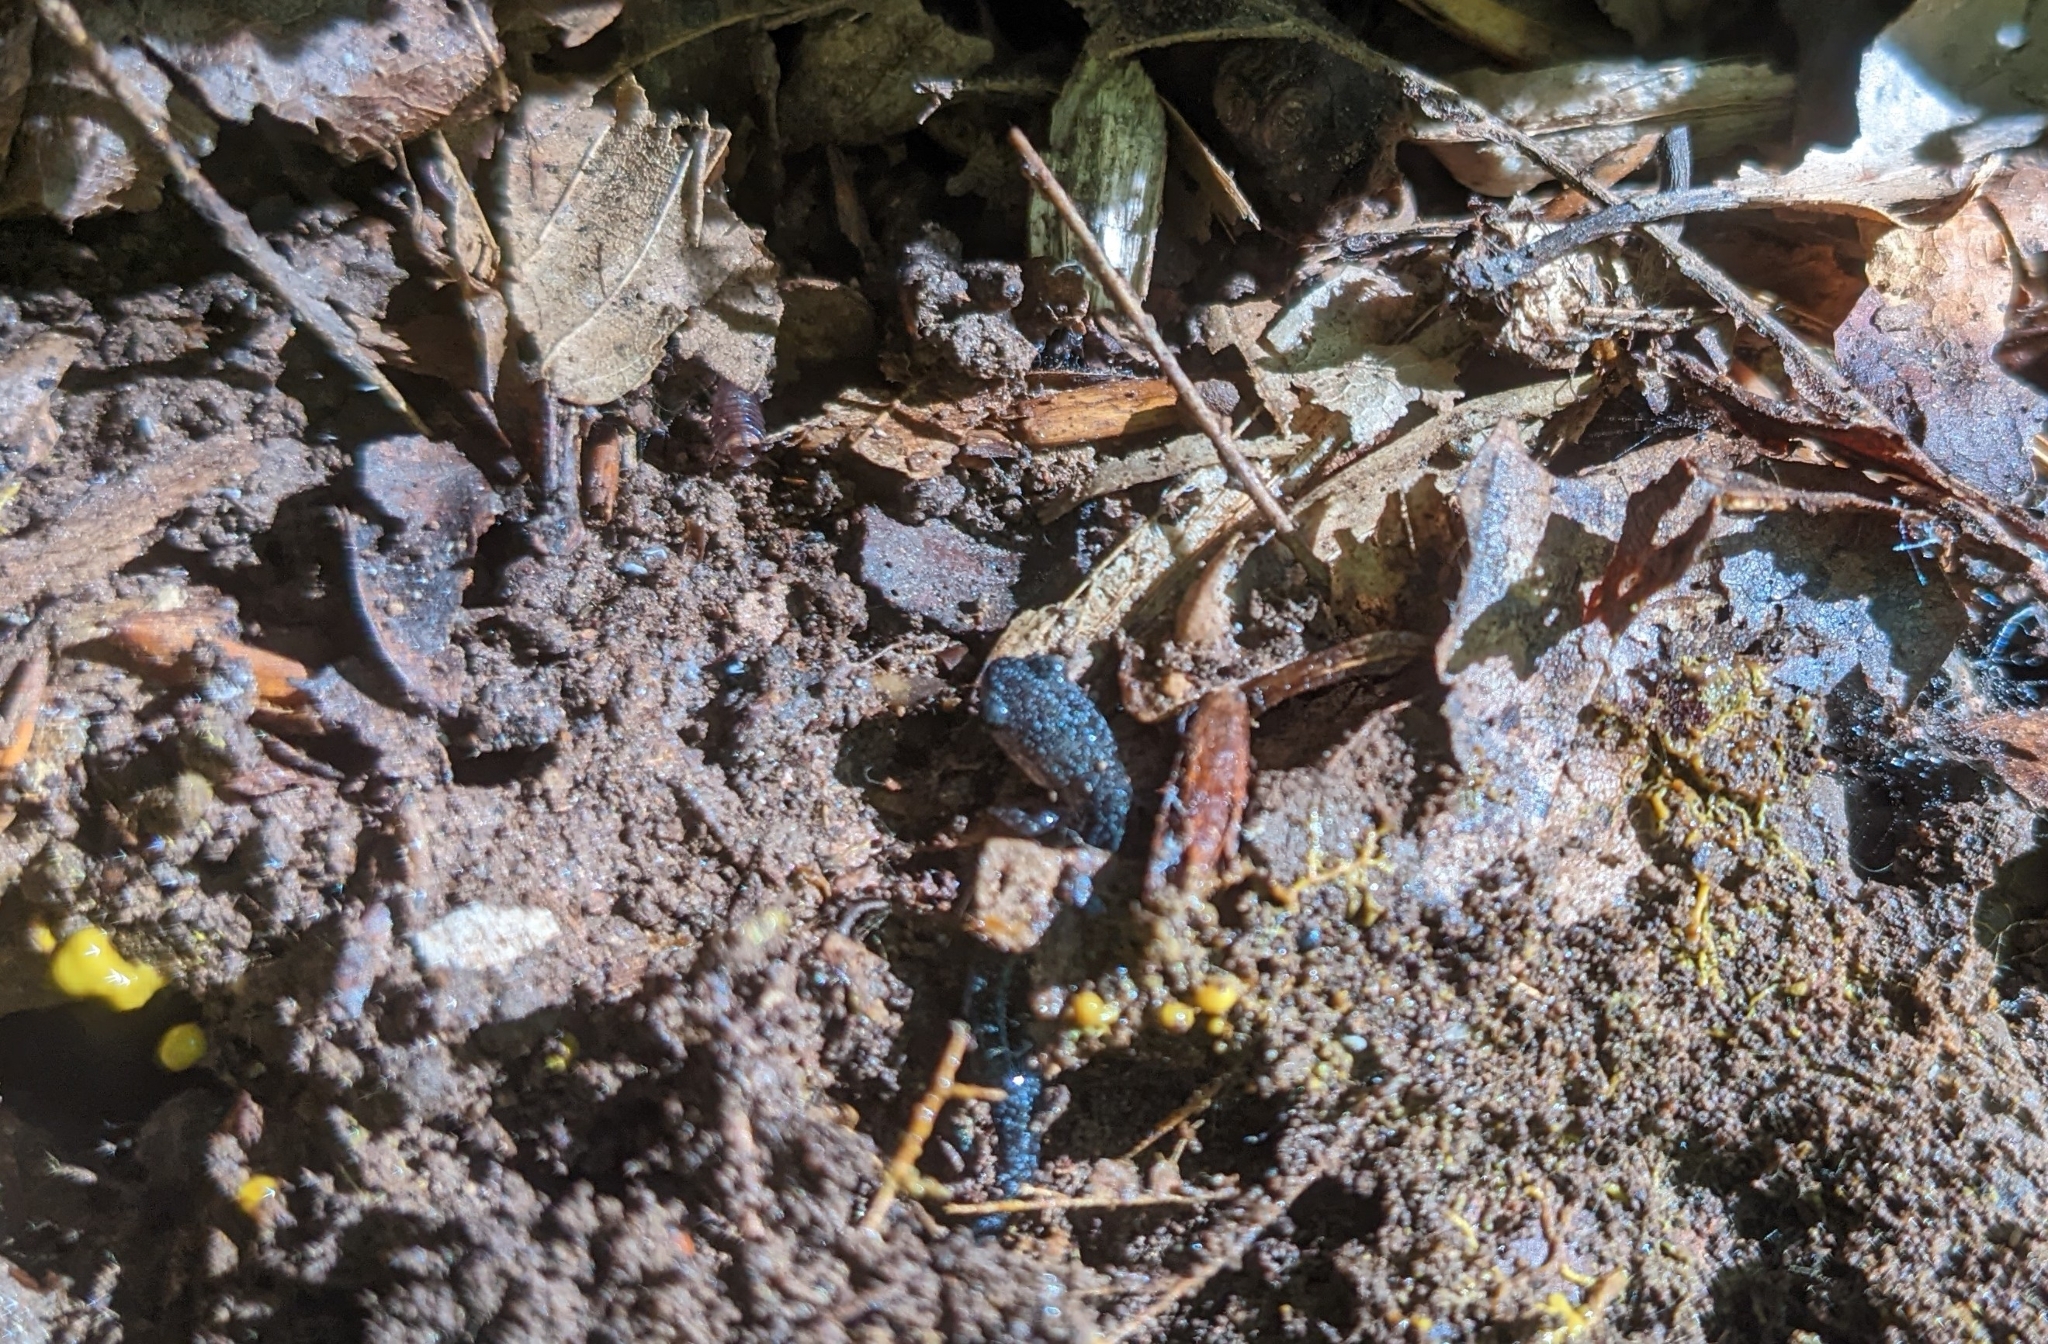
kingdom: Animalia
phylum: Chordata
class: Amphibia
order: Caudata
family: Plethodontidae
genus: Plethodon
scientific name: Plethodon cinereus
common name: Redback salamander
